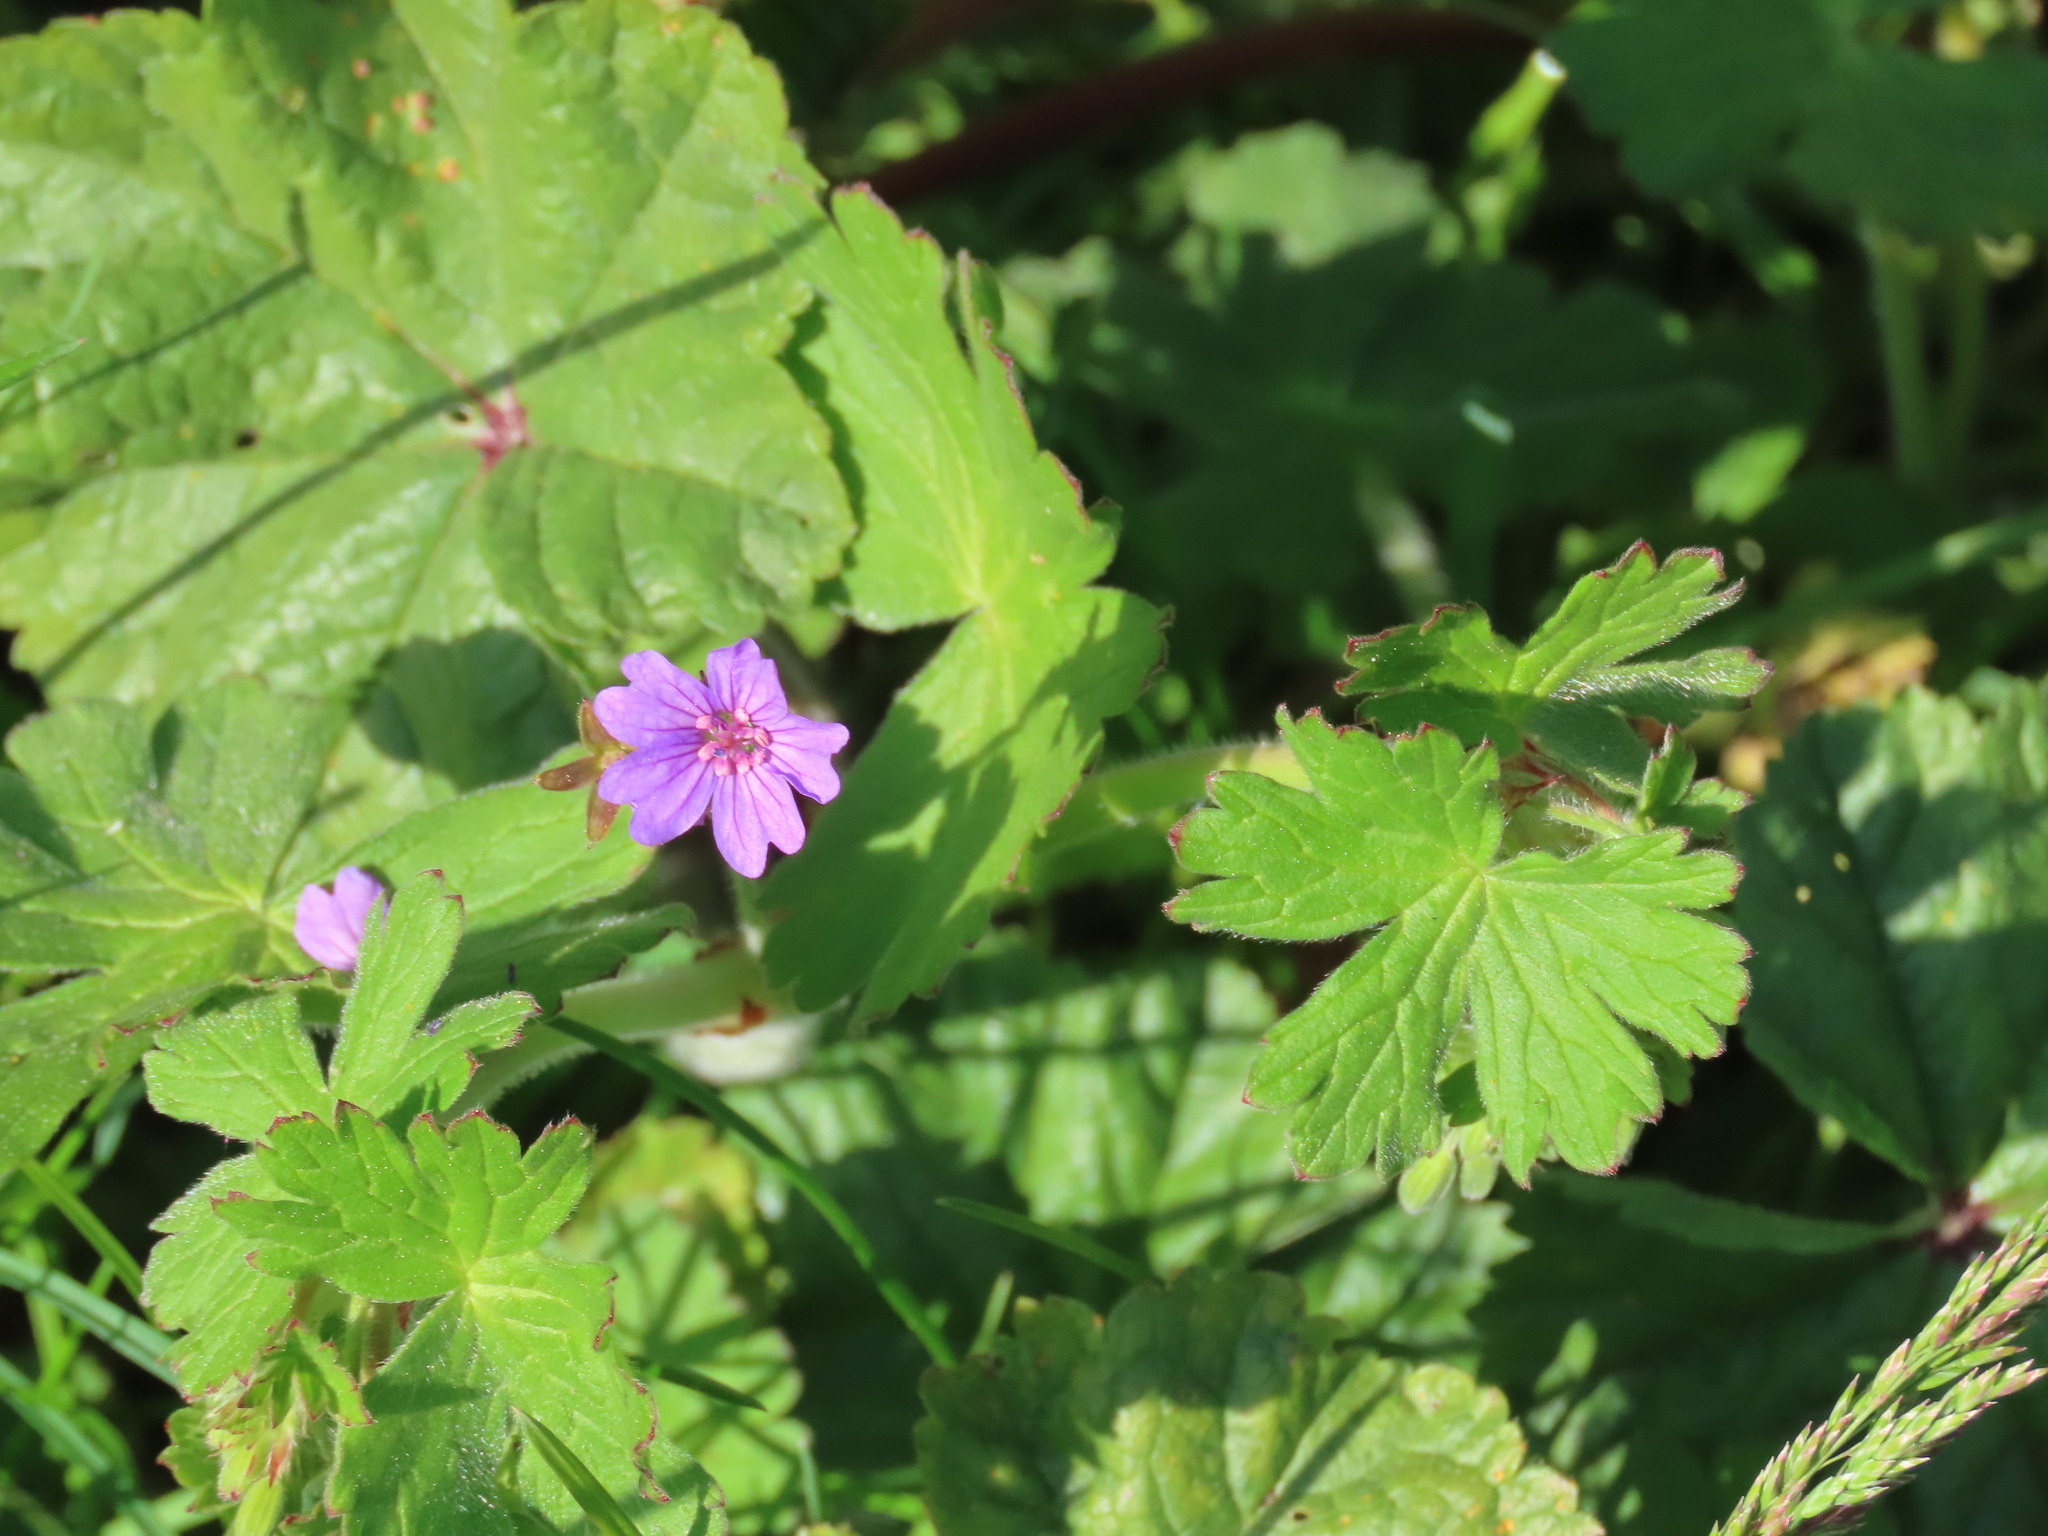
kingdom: Plantae
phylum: Tracheophyta
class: Magnoliopsida
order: Geraniales
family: Geraniaceae
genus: Geranium
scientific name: Geranium pyrenaicum
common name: Hedgerow crane's-bill
